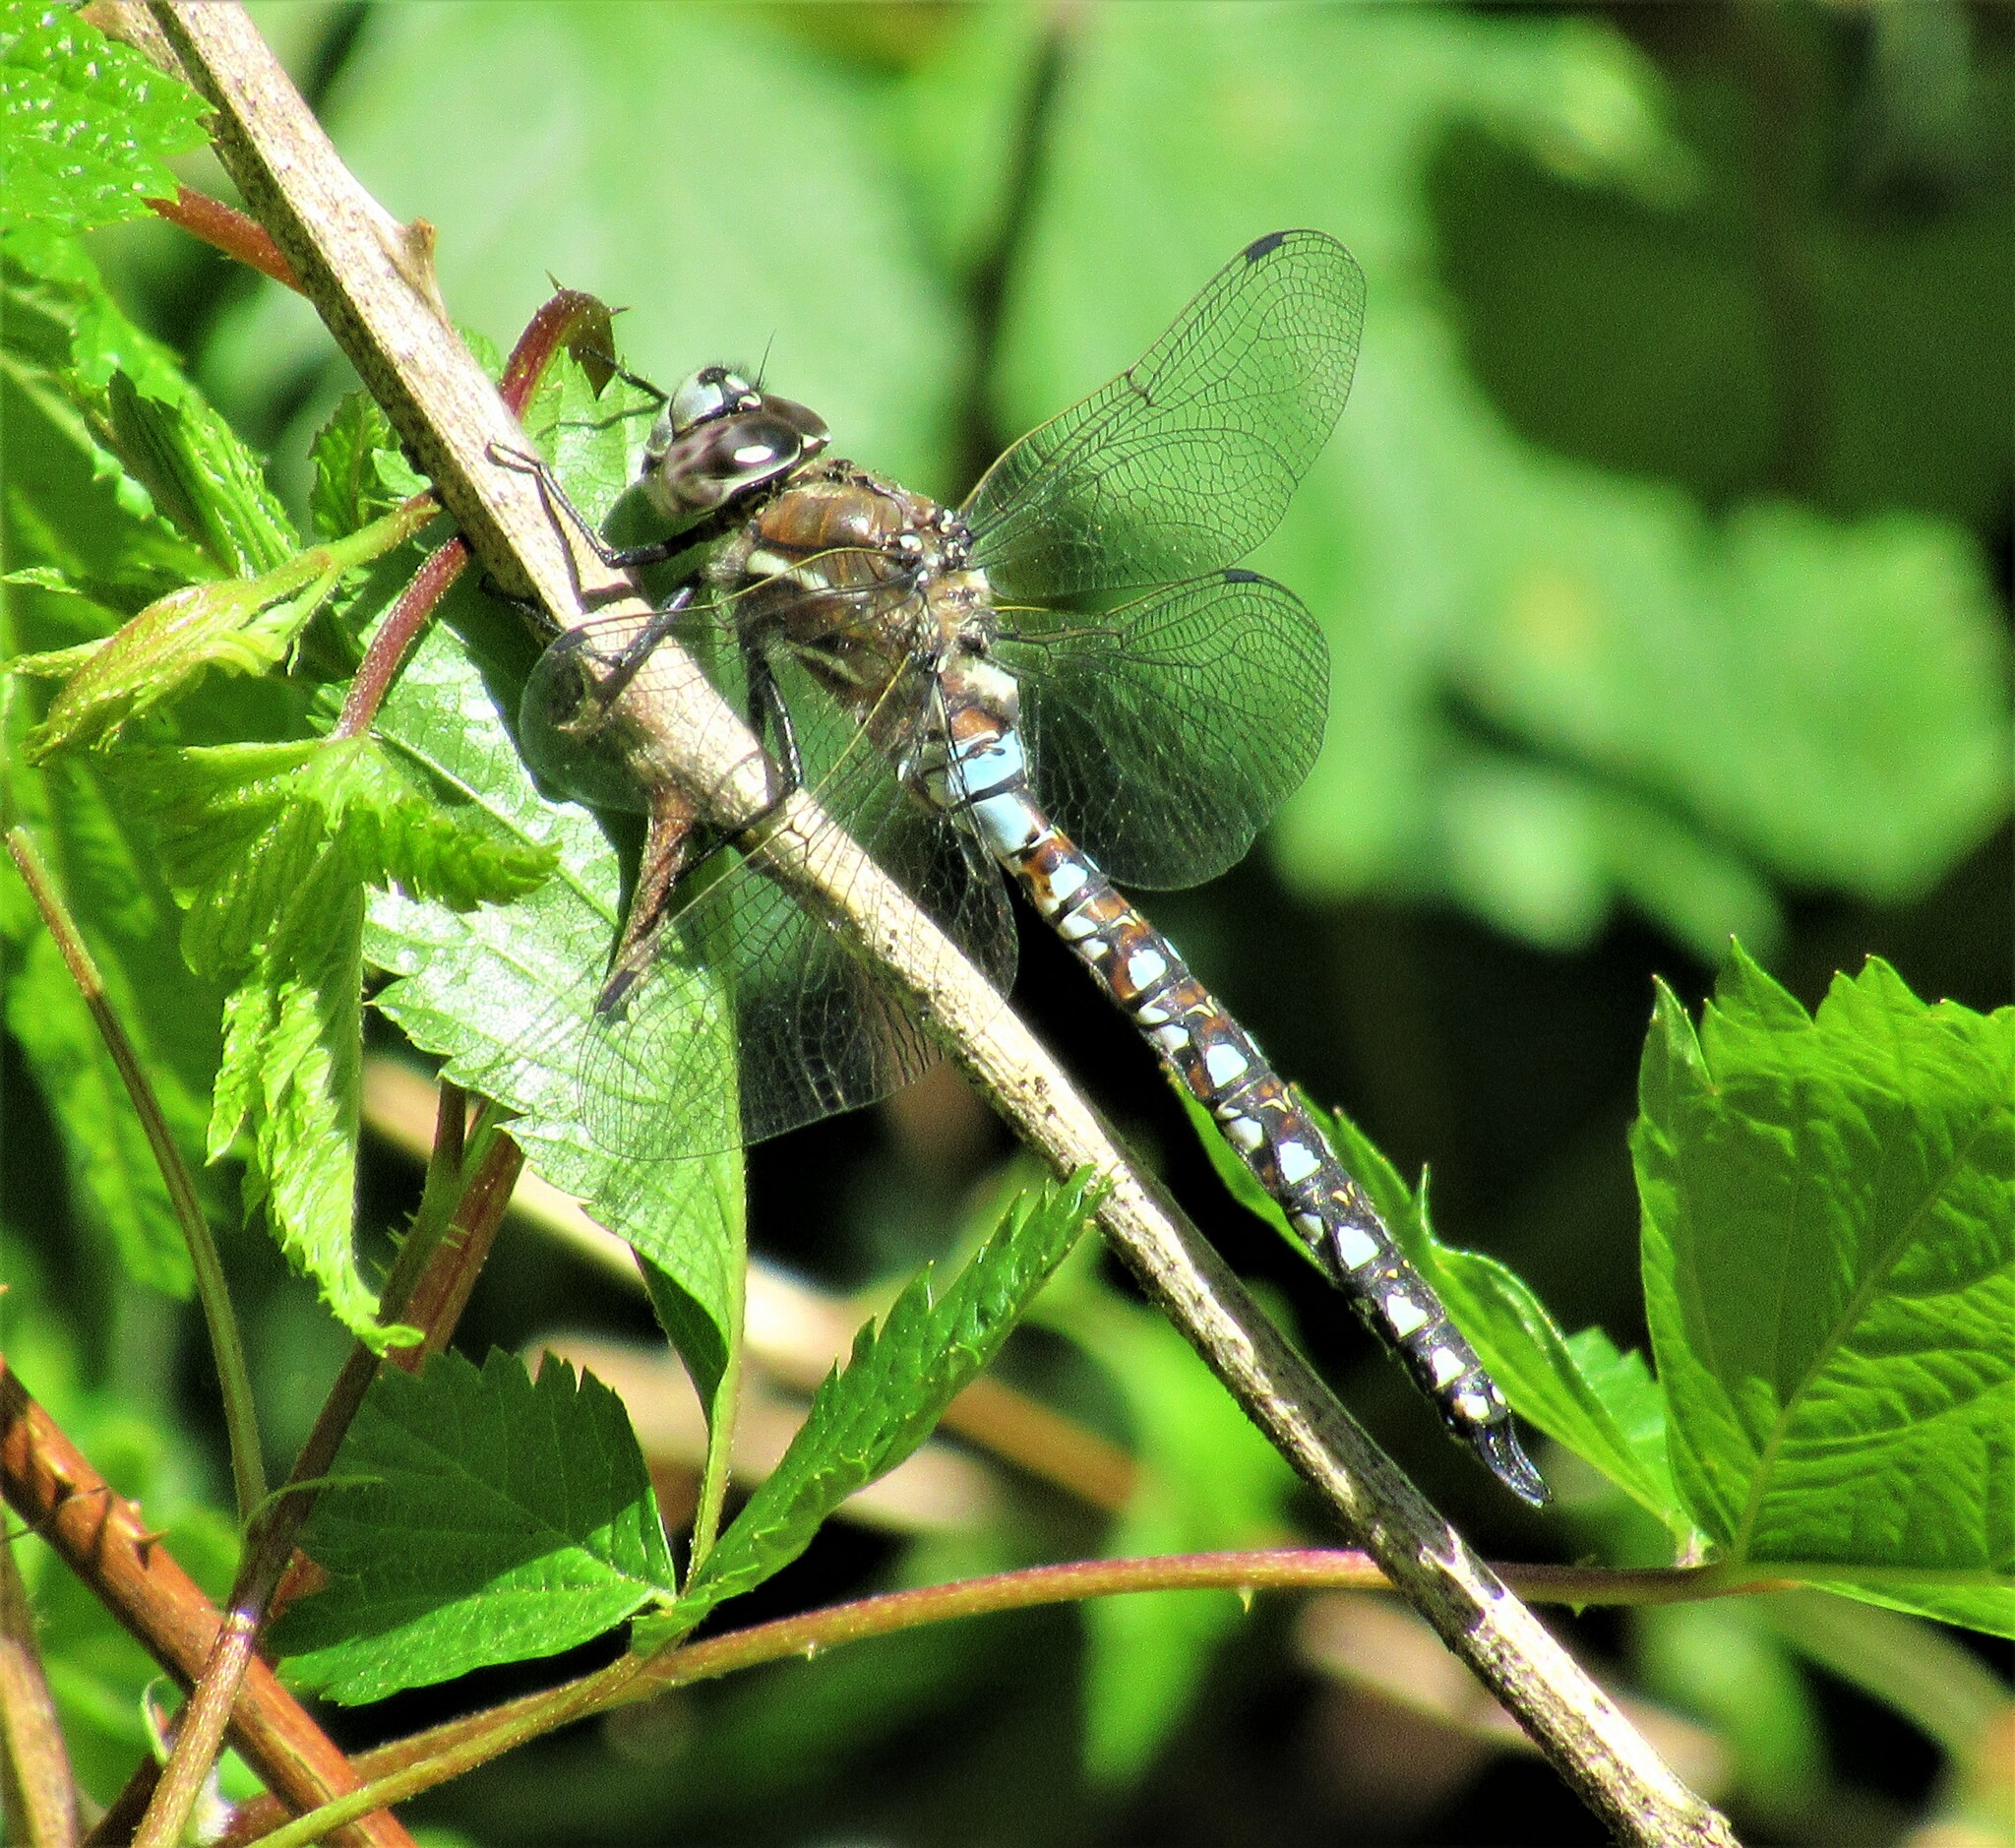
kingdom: Animalia
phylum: Arthropoda
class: Insecta
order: Odonata
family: Aeshnidae
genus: Rhionaeschna
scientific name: Rhionaeschna californica
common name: California darner
